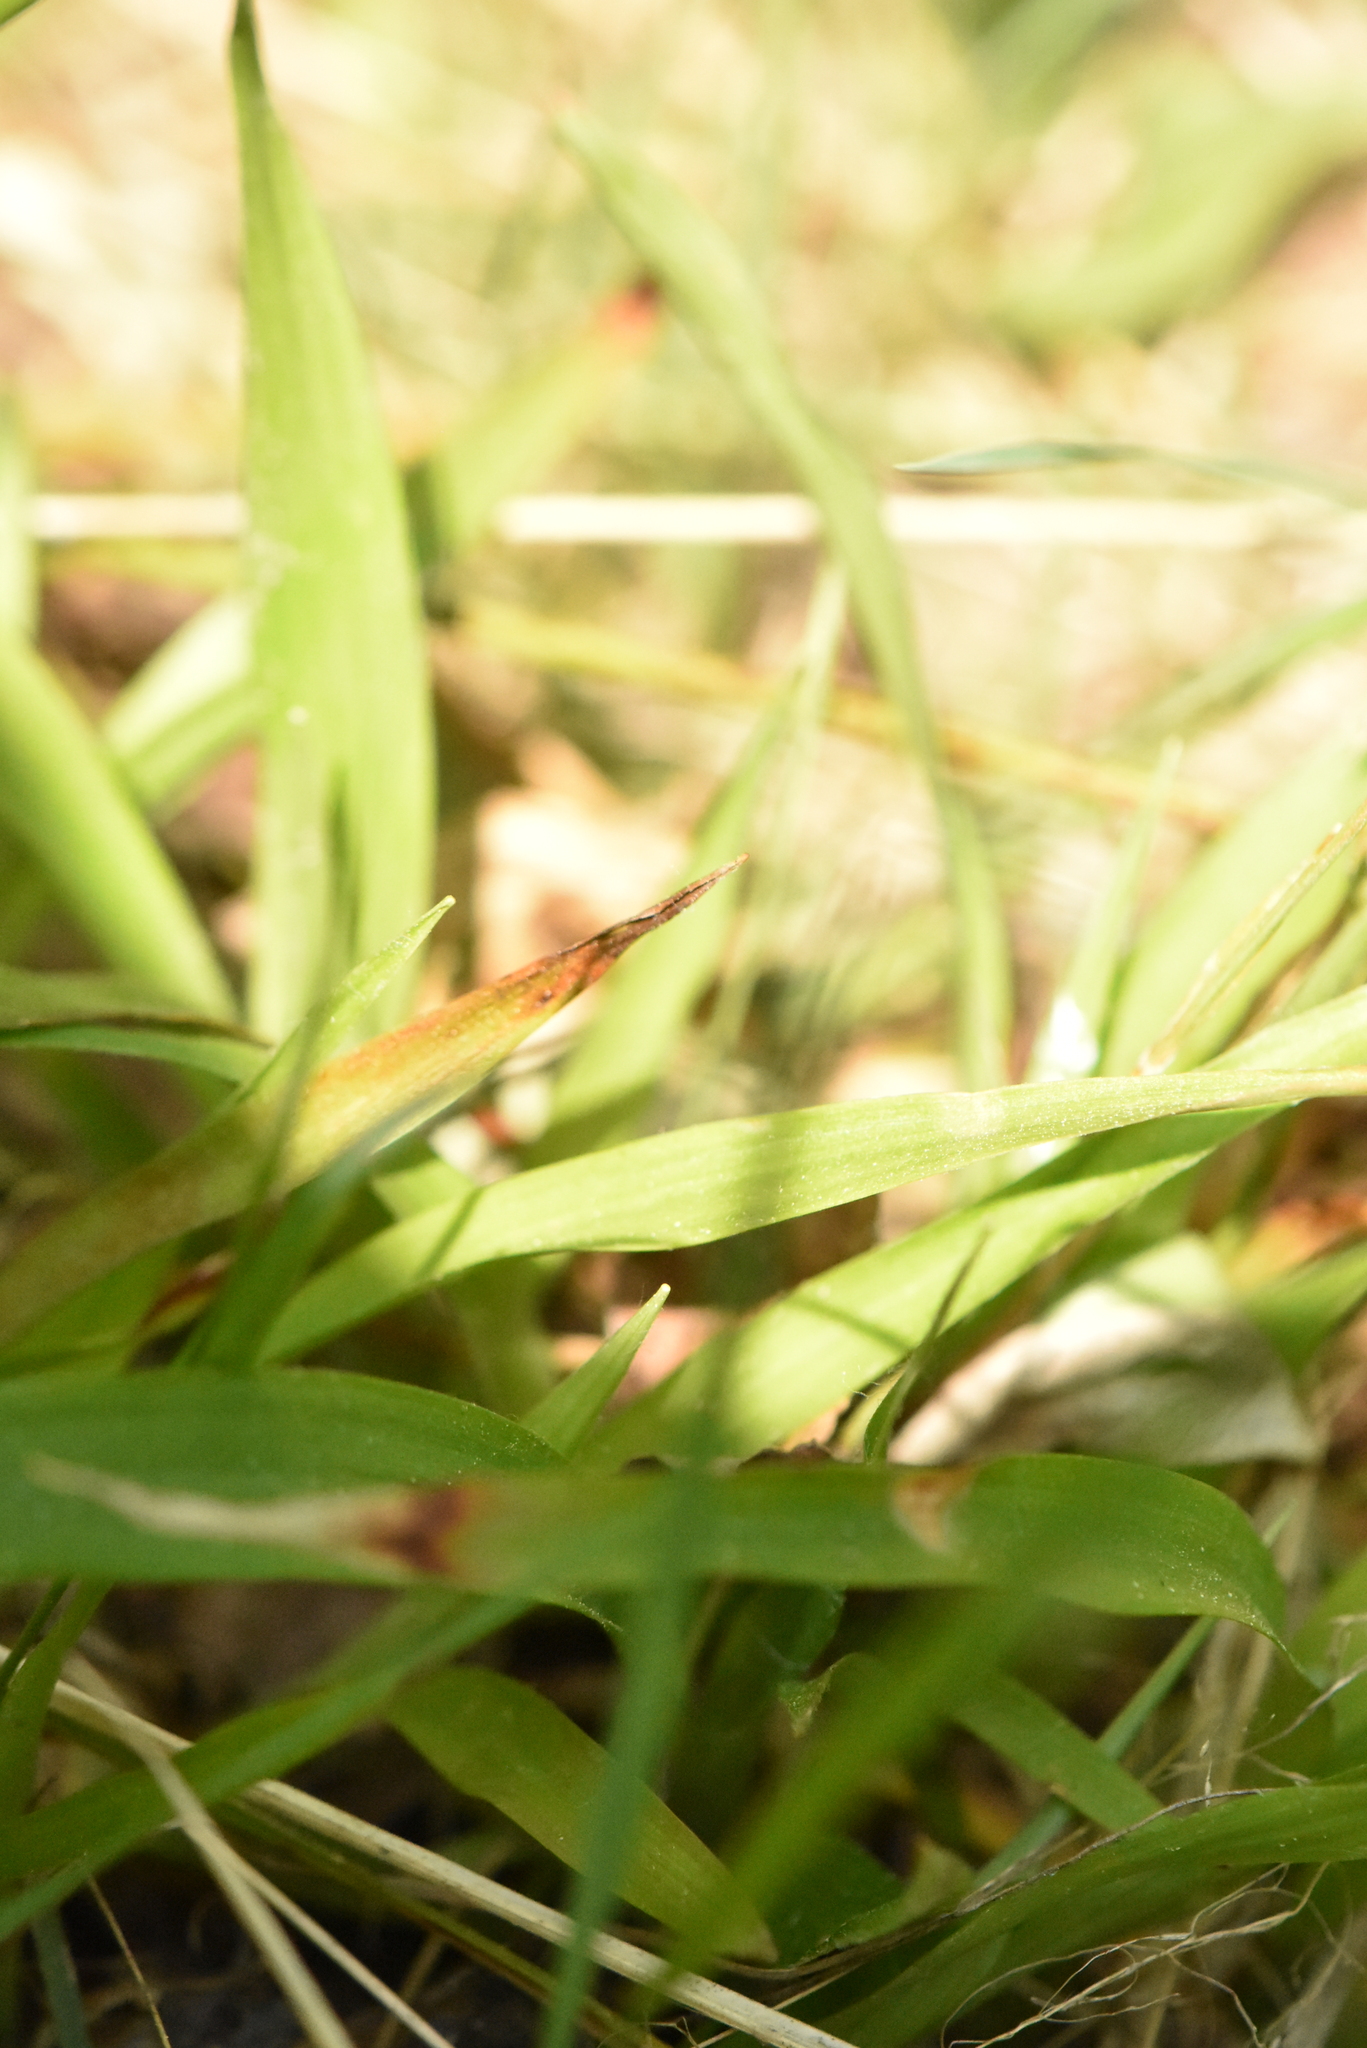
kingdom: Plantae
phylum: Tracheophyta
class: Liliopsida
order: Poales
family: Juncaceae
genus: Luzula
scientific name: Luzula pilosa
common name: Hairy wood-rush
